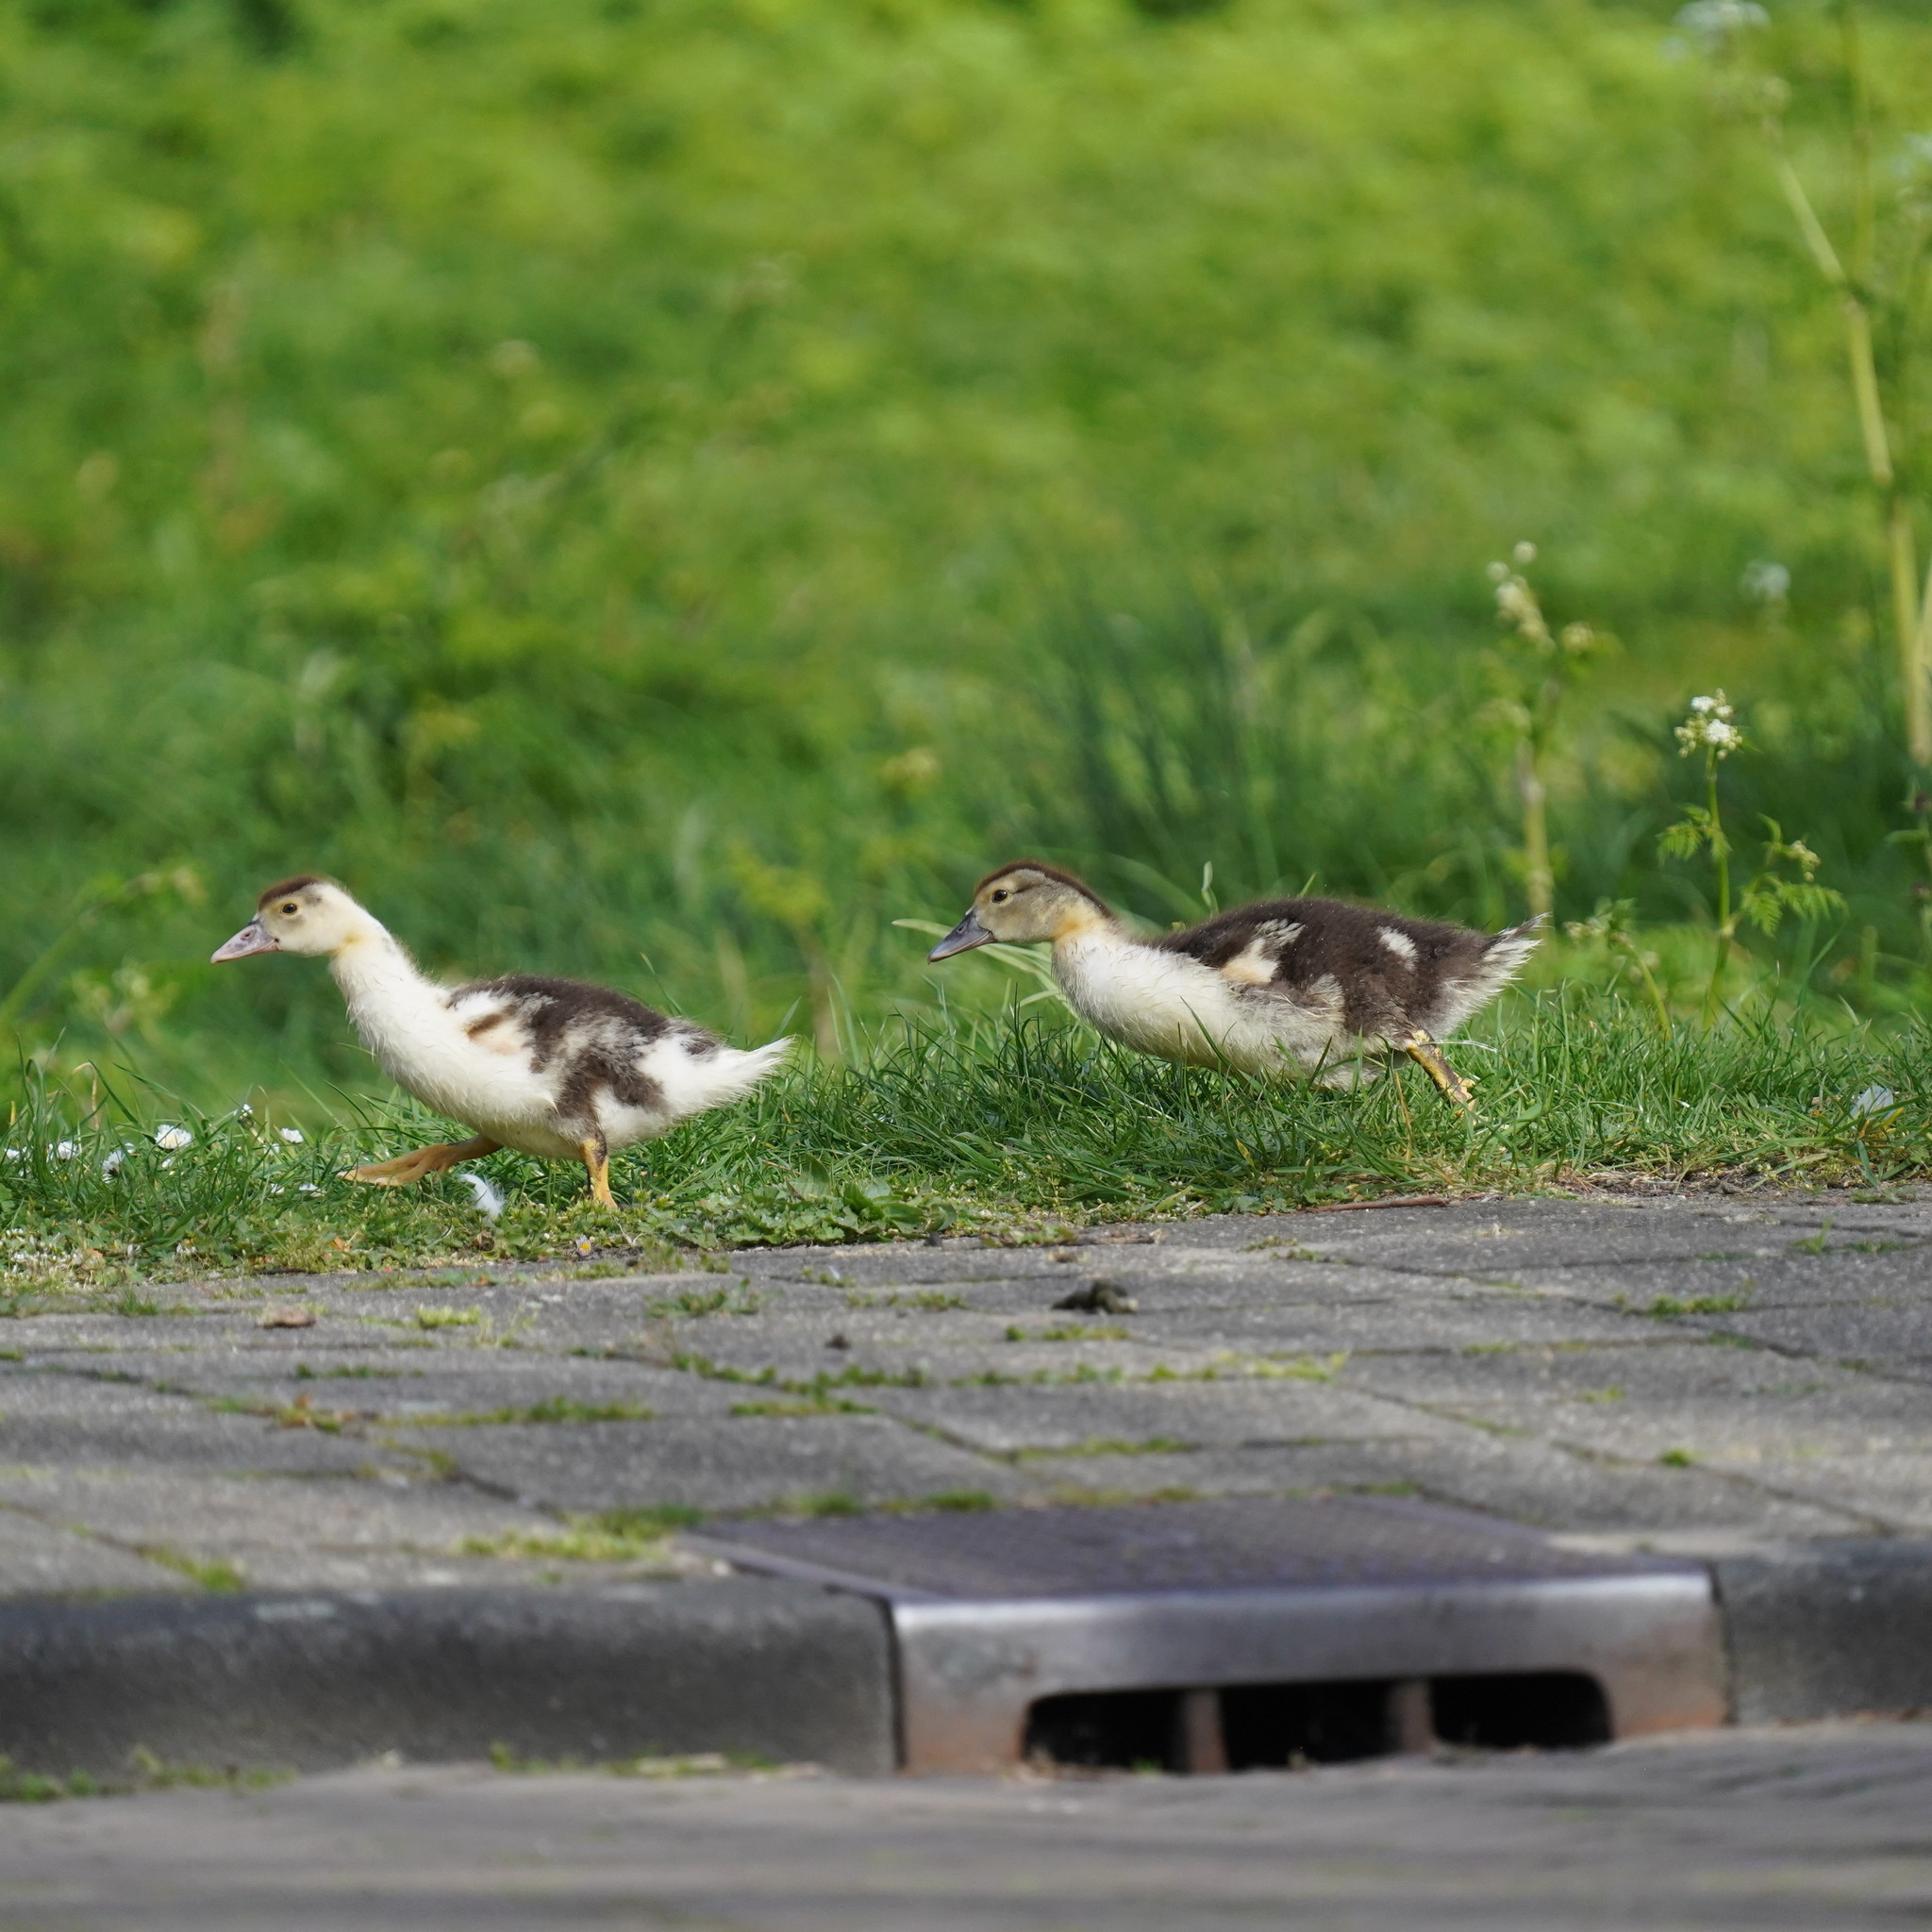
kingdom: Animalia
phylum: Chordata
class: Aves
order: Anseriformes
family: Anatidae
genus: Cairina
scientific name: Cairina moschata
